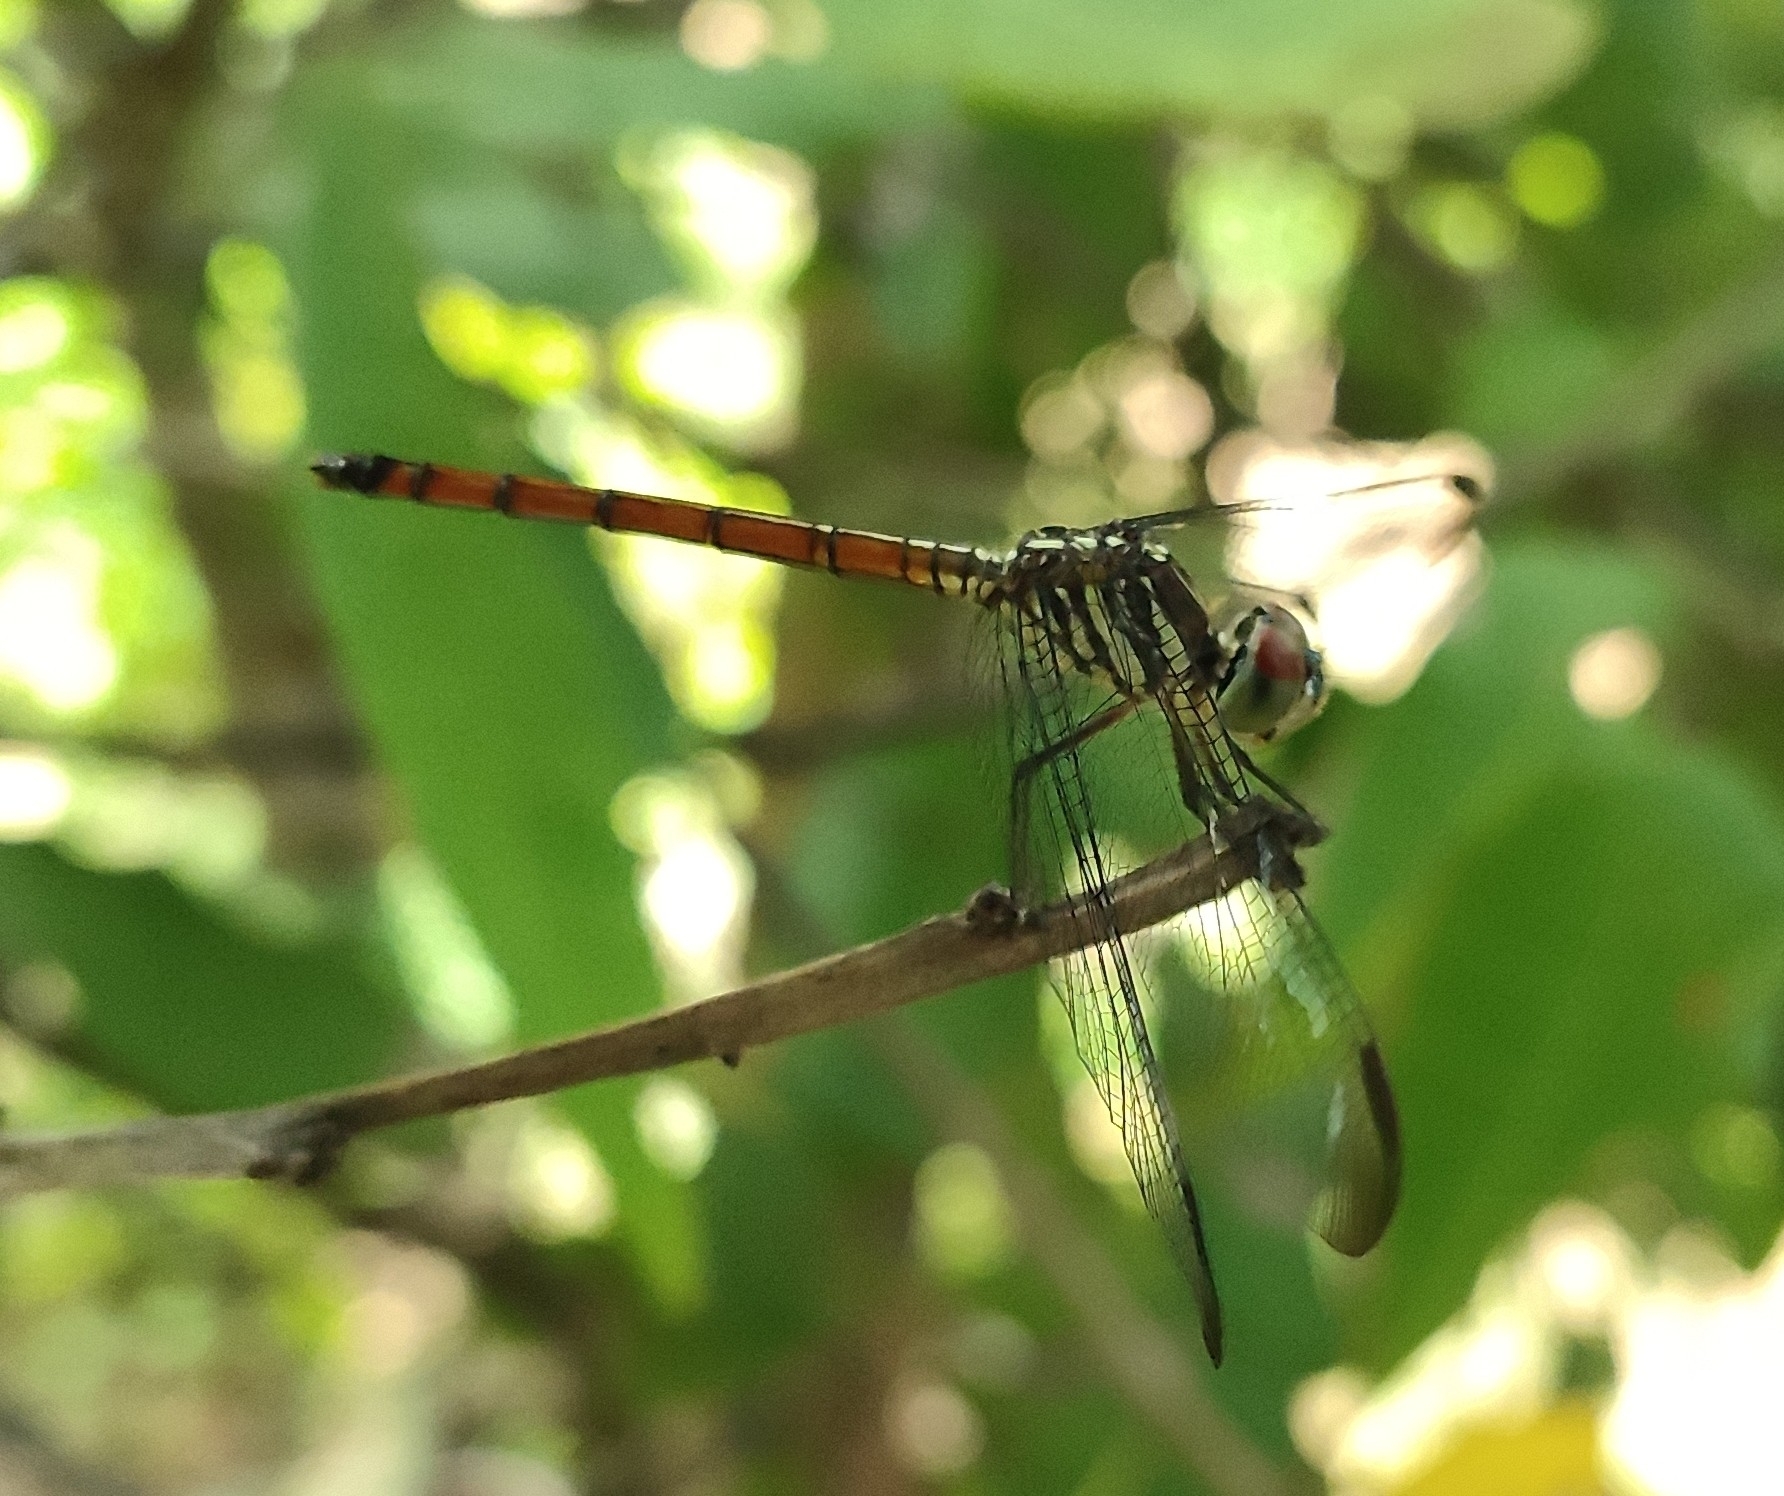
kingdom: Animalia
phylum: Arthropoda
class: Insecta
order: Odonata
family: Libellulidae
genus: Lathrecista
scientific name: Lathrecista asiatica
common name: Scarlet grenadier
